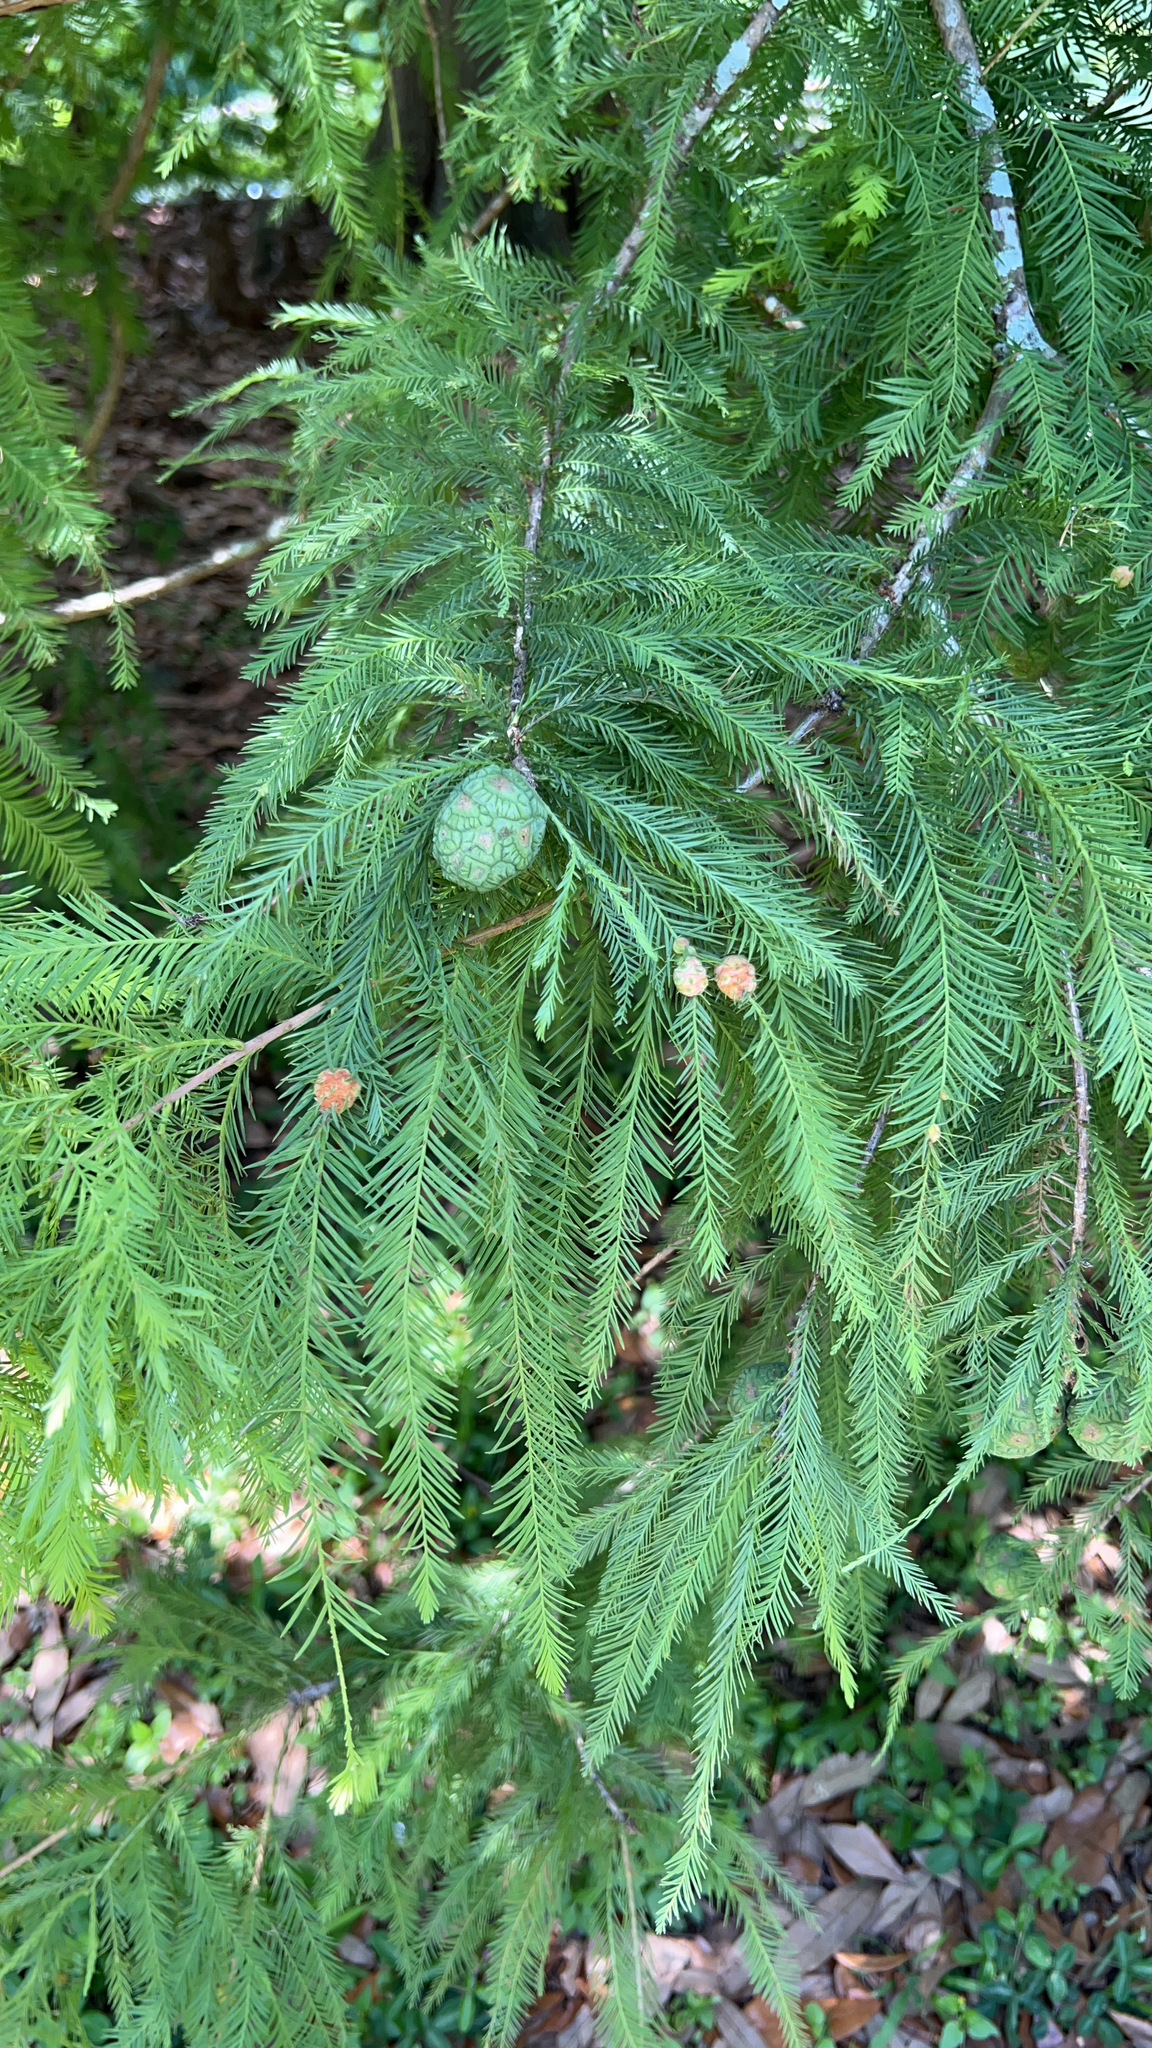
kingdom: Plantae
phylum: Tracheophyta
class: Pinopsida
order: Pinales
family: Cupressaceae
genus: Taxodium
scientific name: Taxodium distichum
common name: Bald cypress
